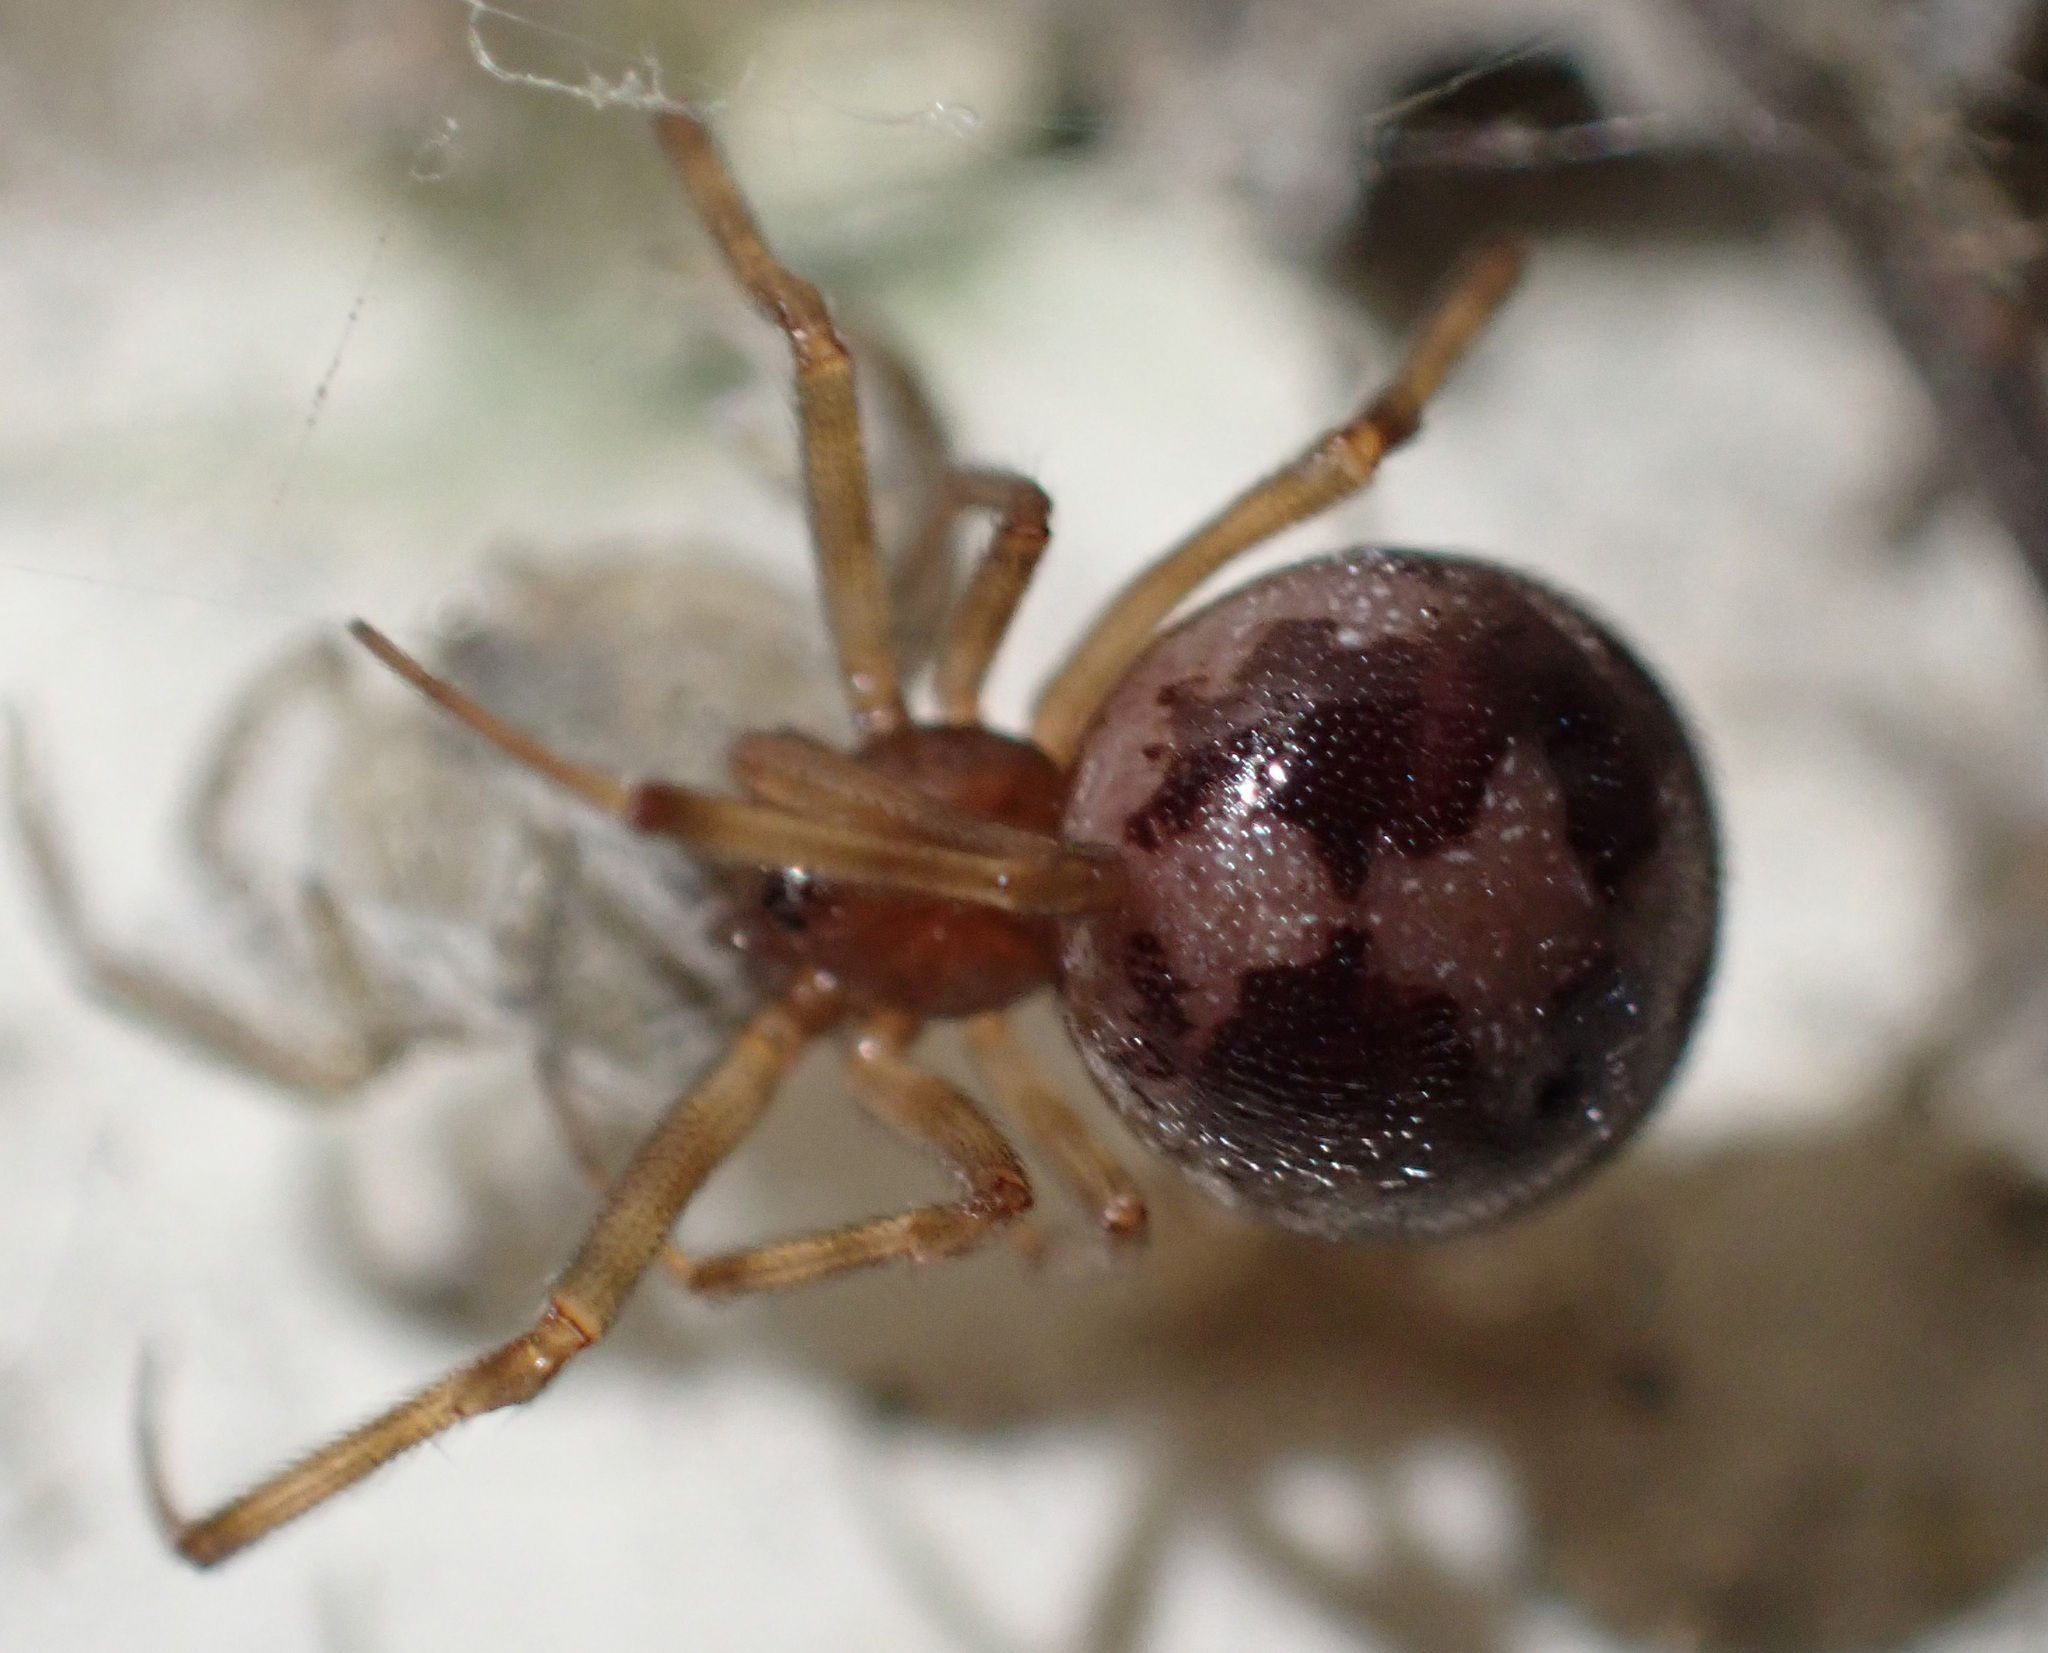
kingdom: Animalia
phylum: Arthropoda
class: Arachnida
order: Araneae
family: Theridiidae
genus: Steatoda
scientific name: Steatoda triangulosa
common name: Triangulate bud spider
